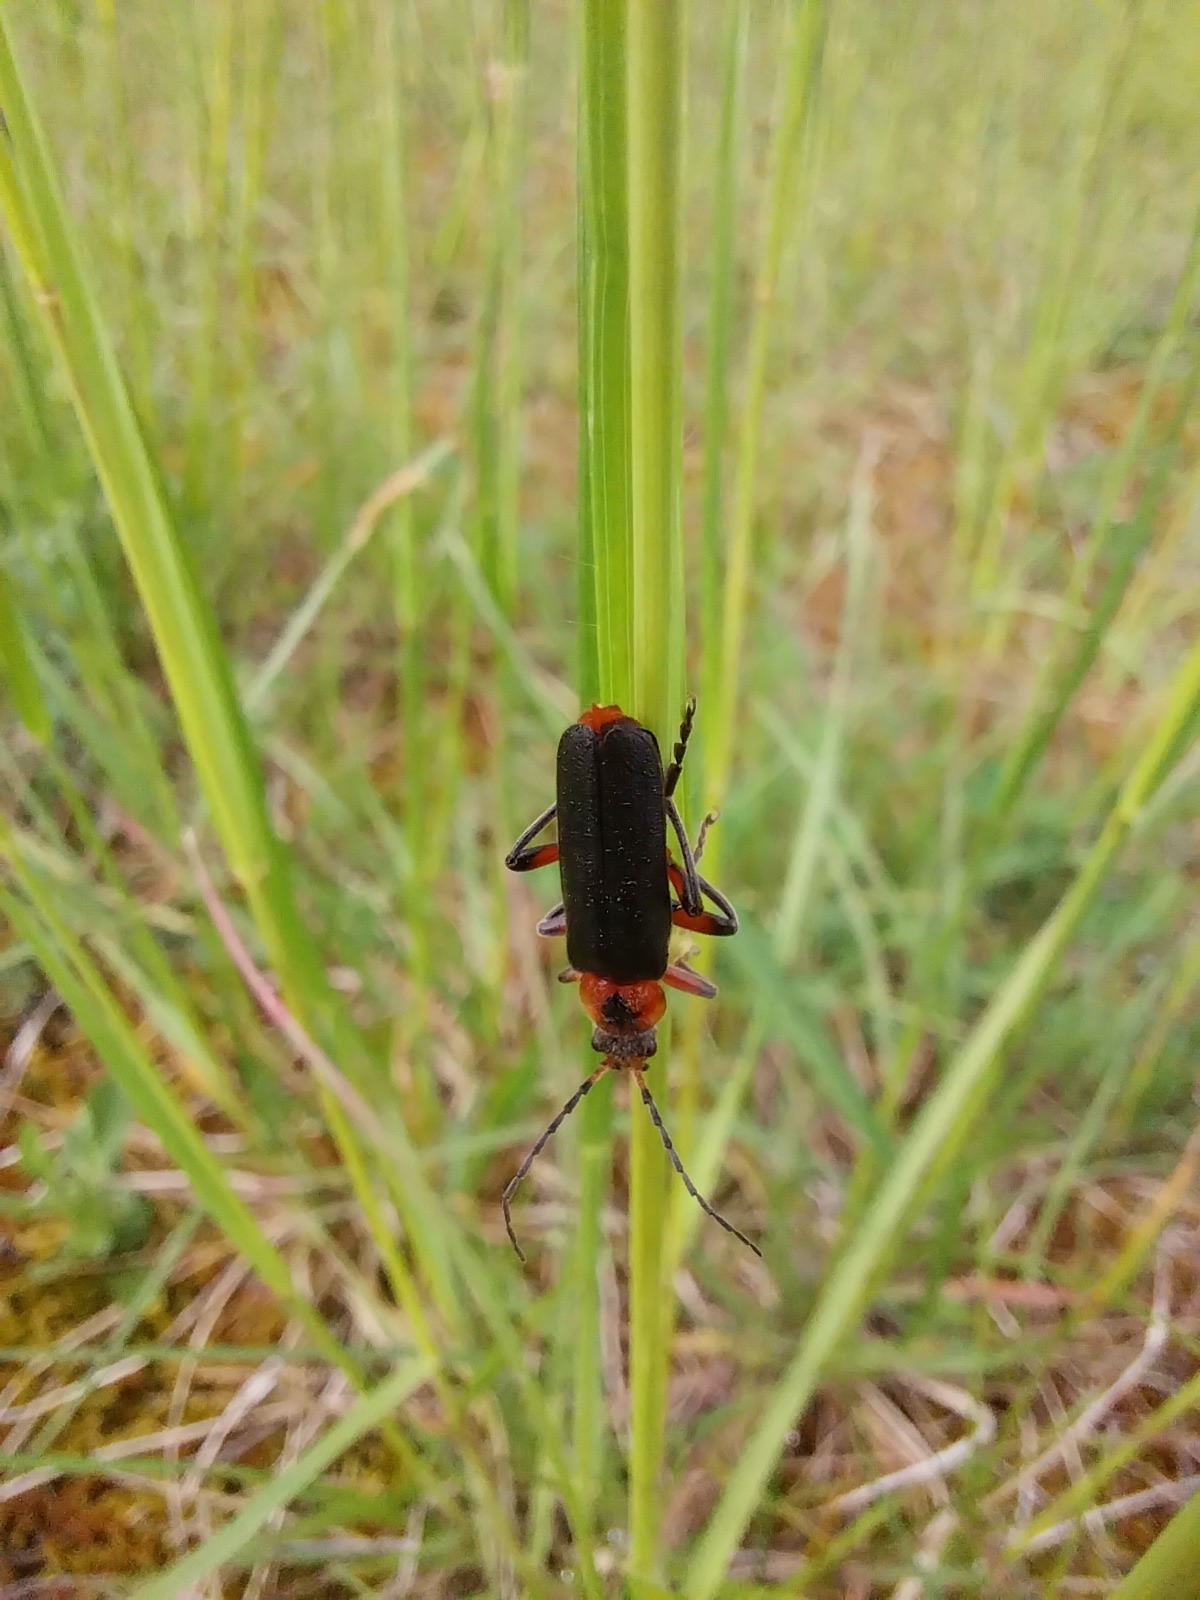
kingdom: Animalia
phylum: Arthropoda
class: Insecta
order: Coleoptera
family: Cantharidae
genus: Cantharis
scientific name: Cantharis rustica
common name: Soldier beetle
